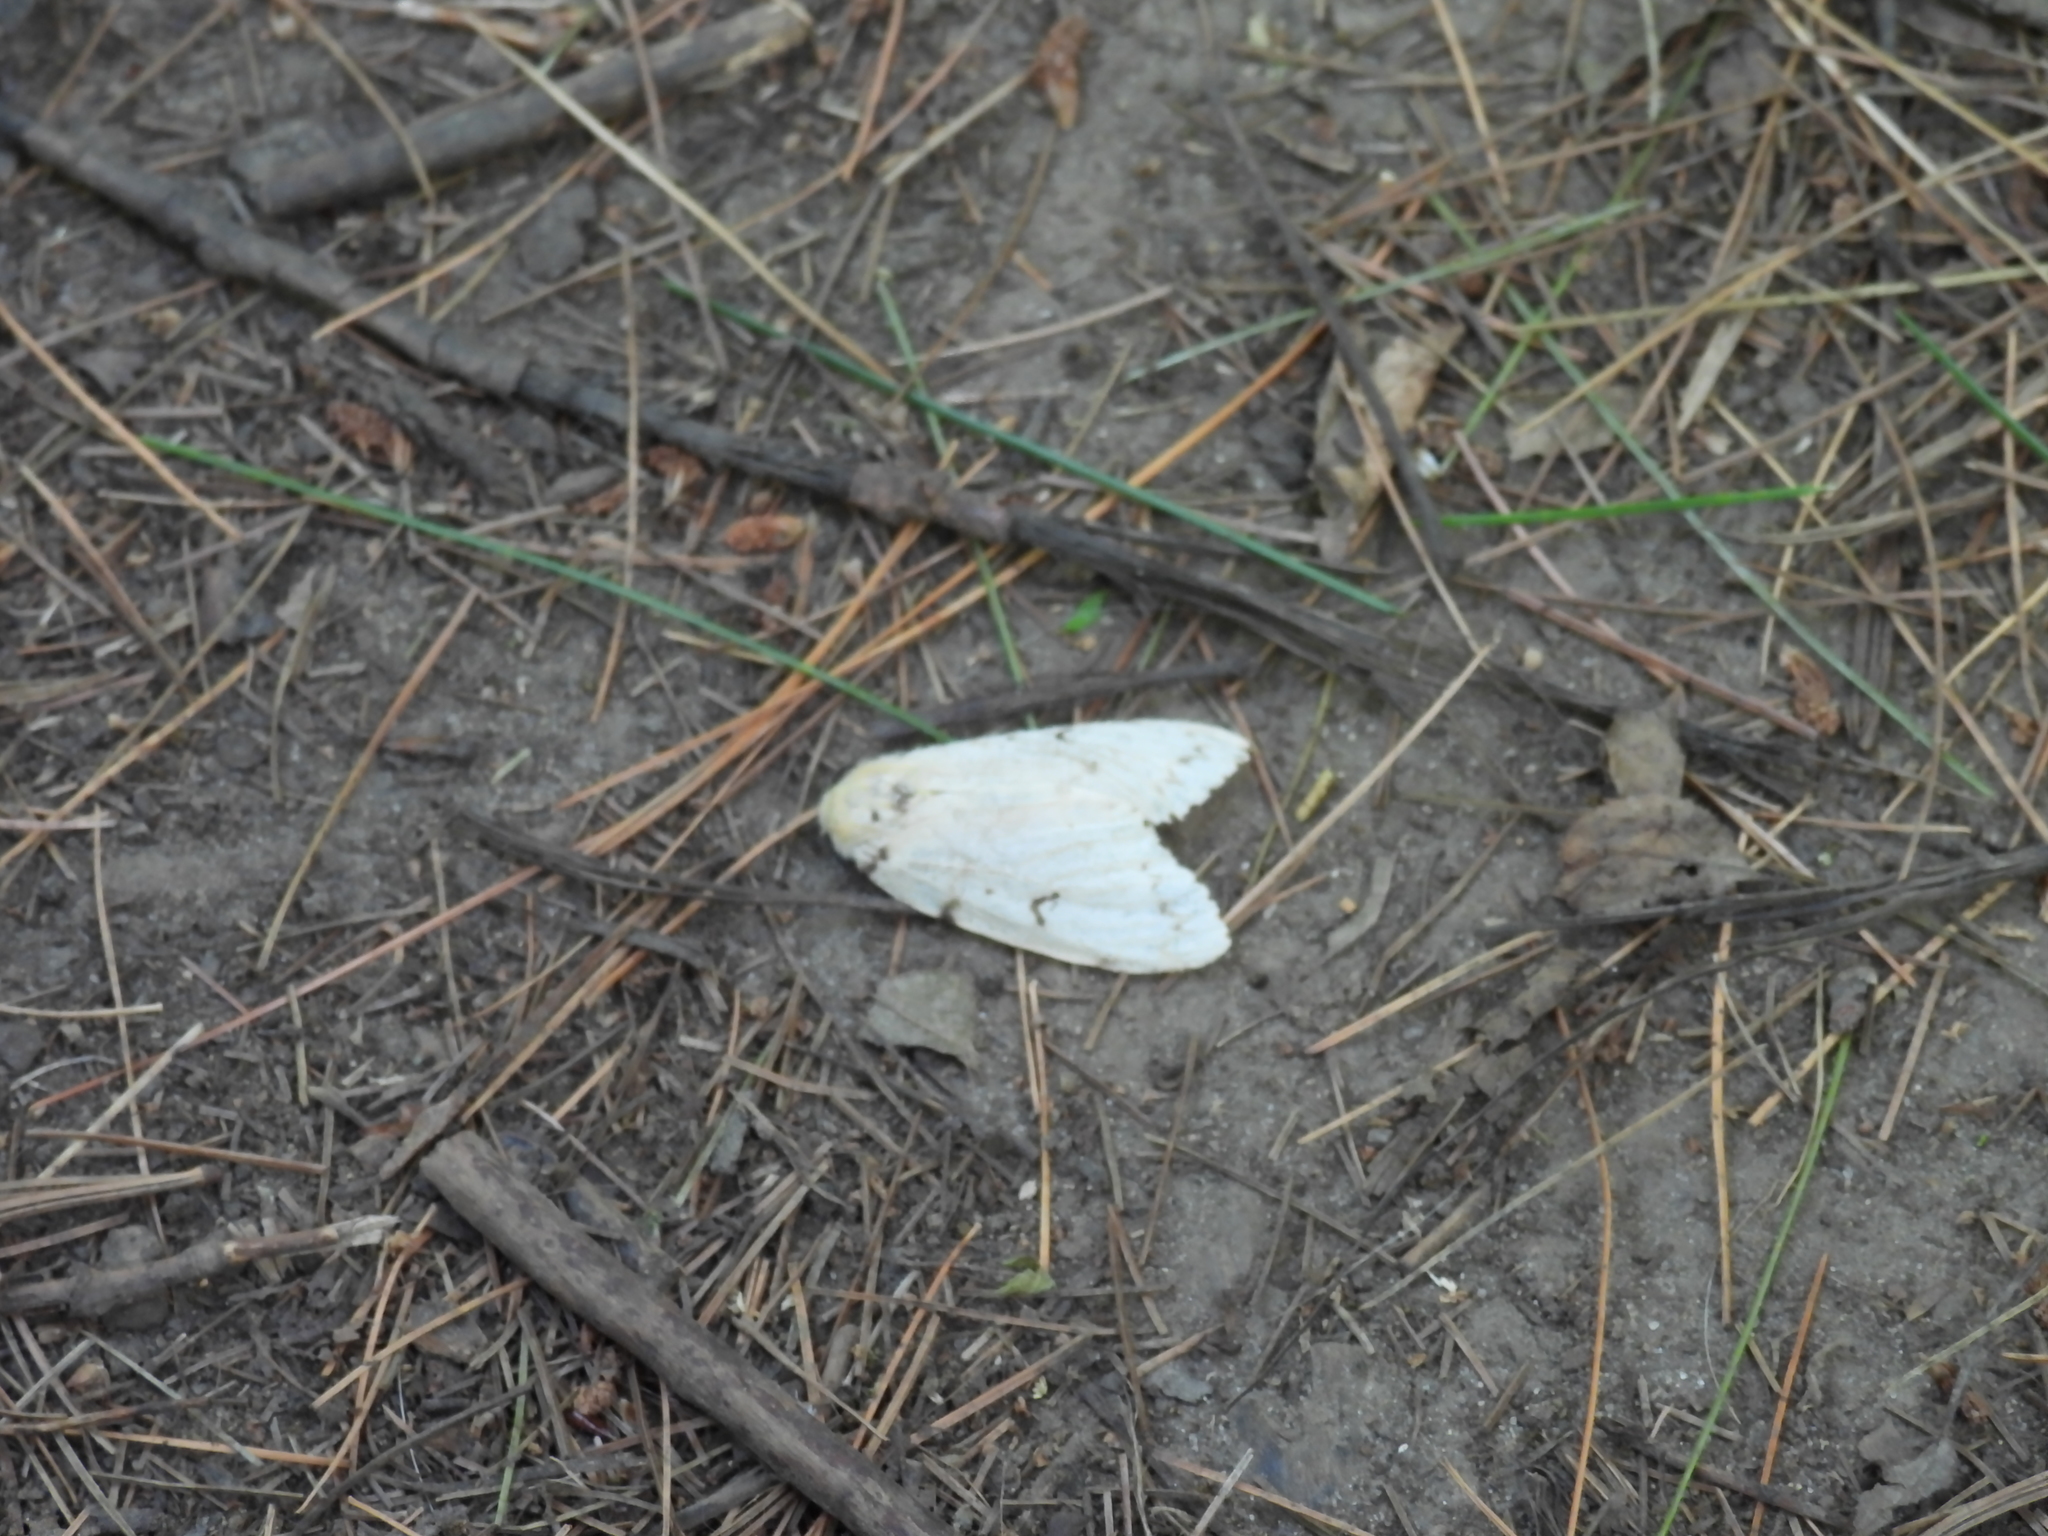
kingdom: Animalia
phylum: Arthropoda
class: Insecta
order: Lepidoptera
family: Erebidae
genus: Lymantria
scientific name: Lymantria dispar
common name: Gypsy moth
